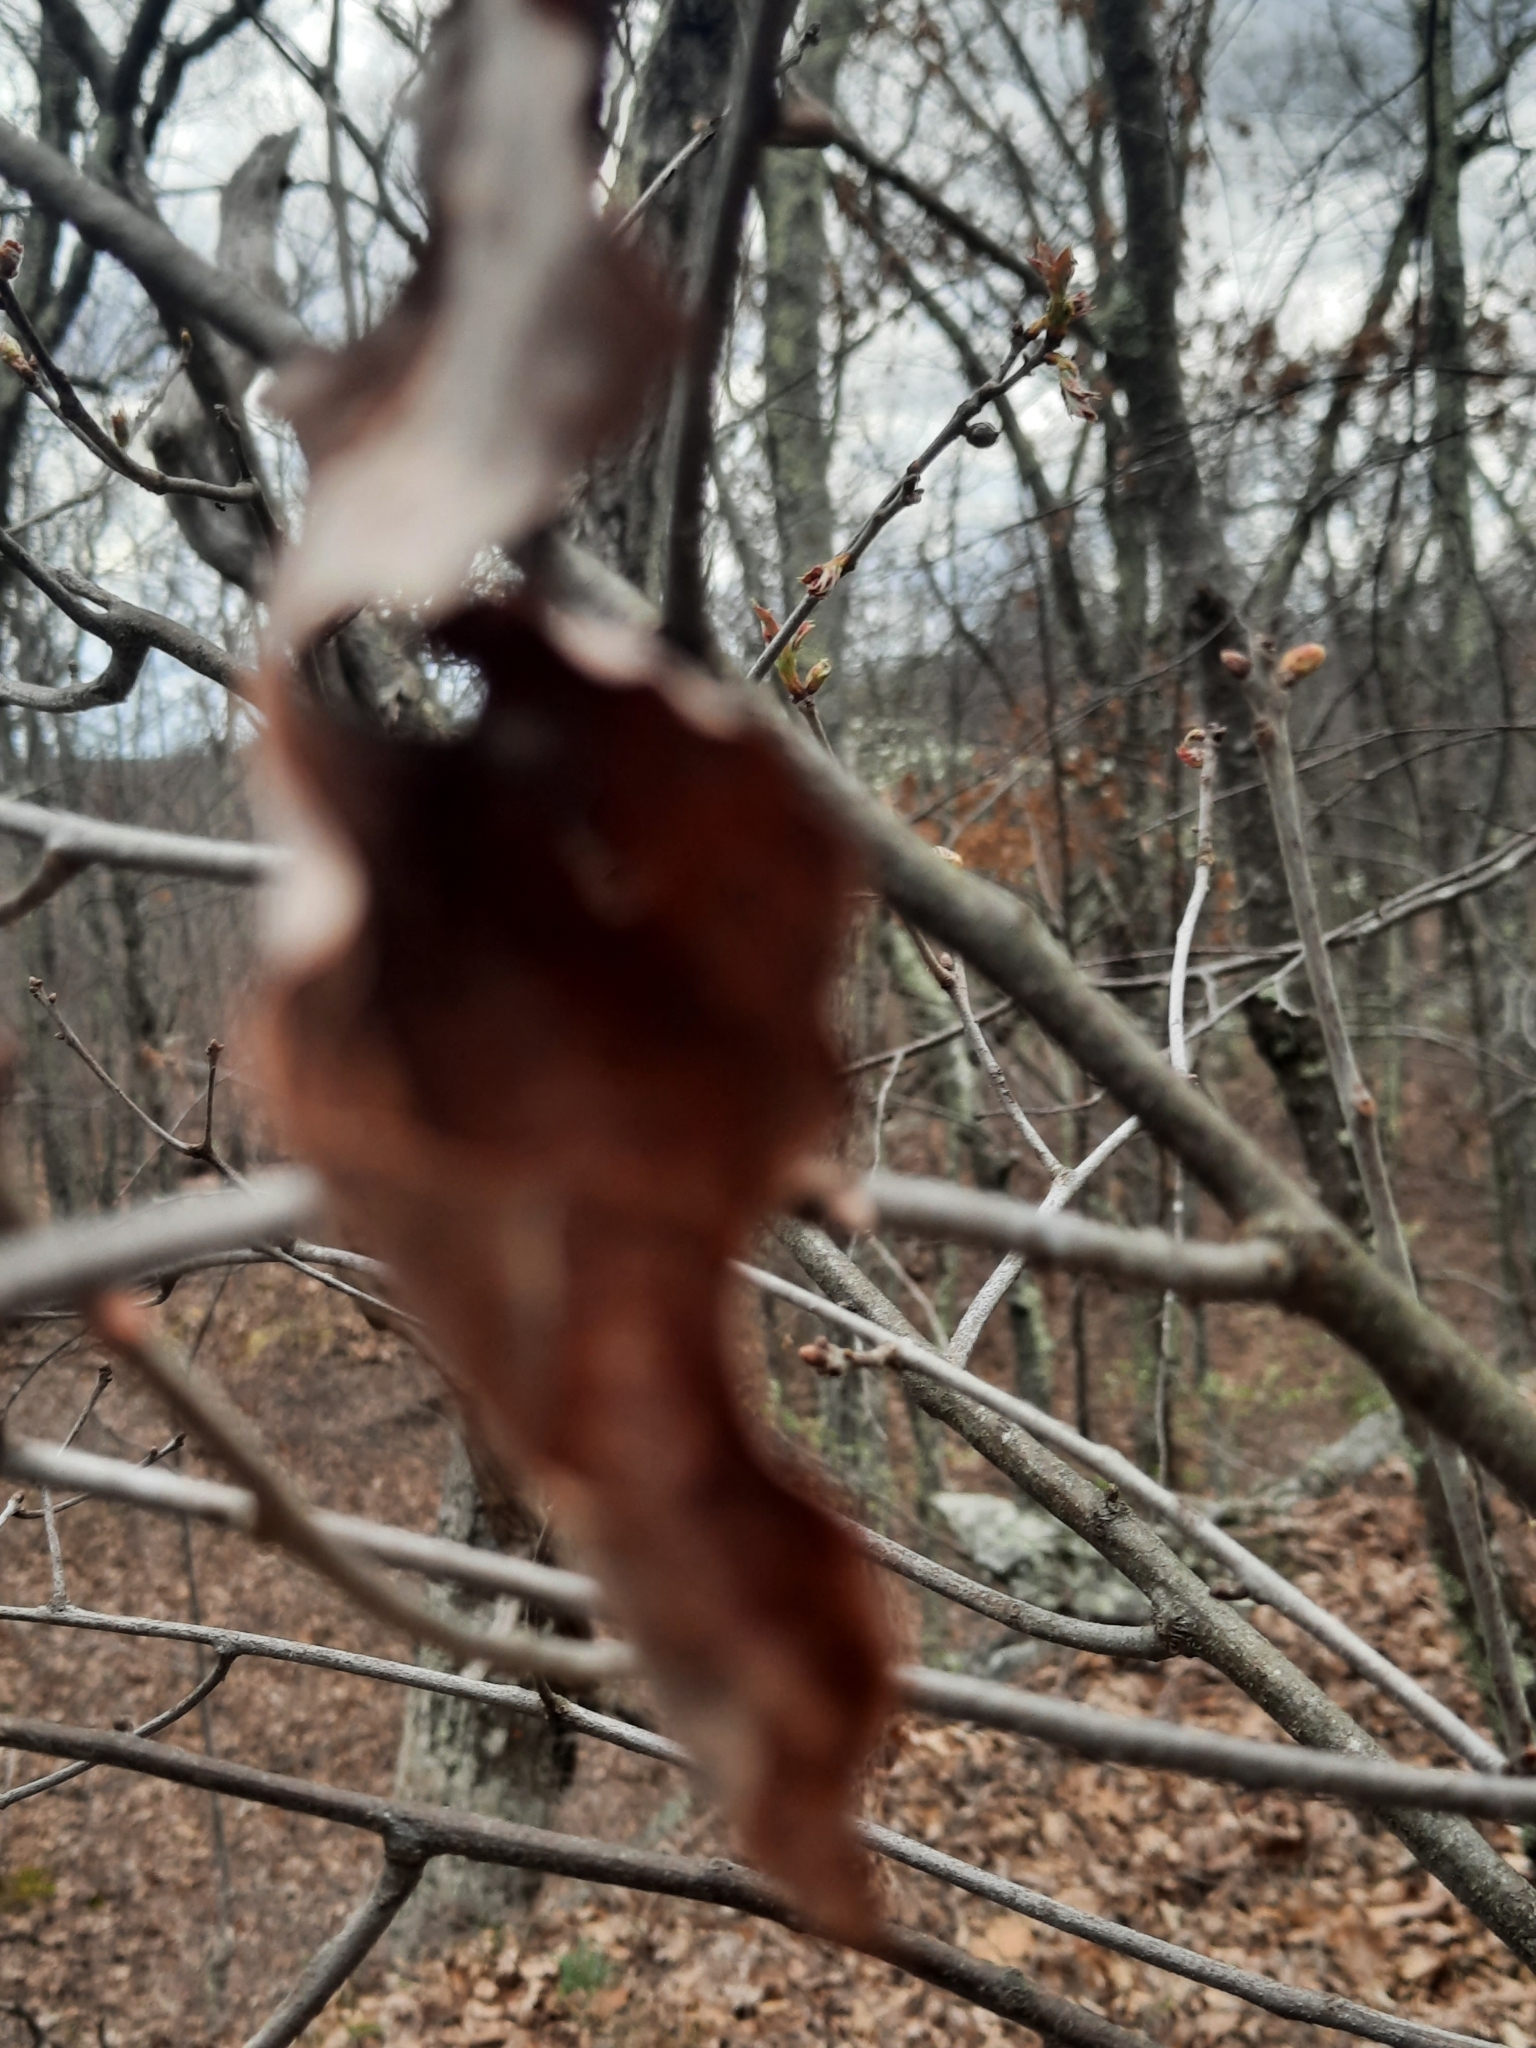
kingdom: Plantae
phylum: Tracheophyta
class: Magnoliopsida
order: Fagales
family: Fagaceae
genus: Quercus
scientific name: Quercus ilicifolia
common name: Bear oak
